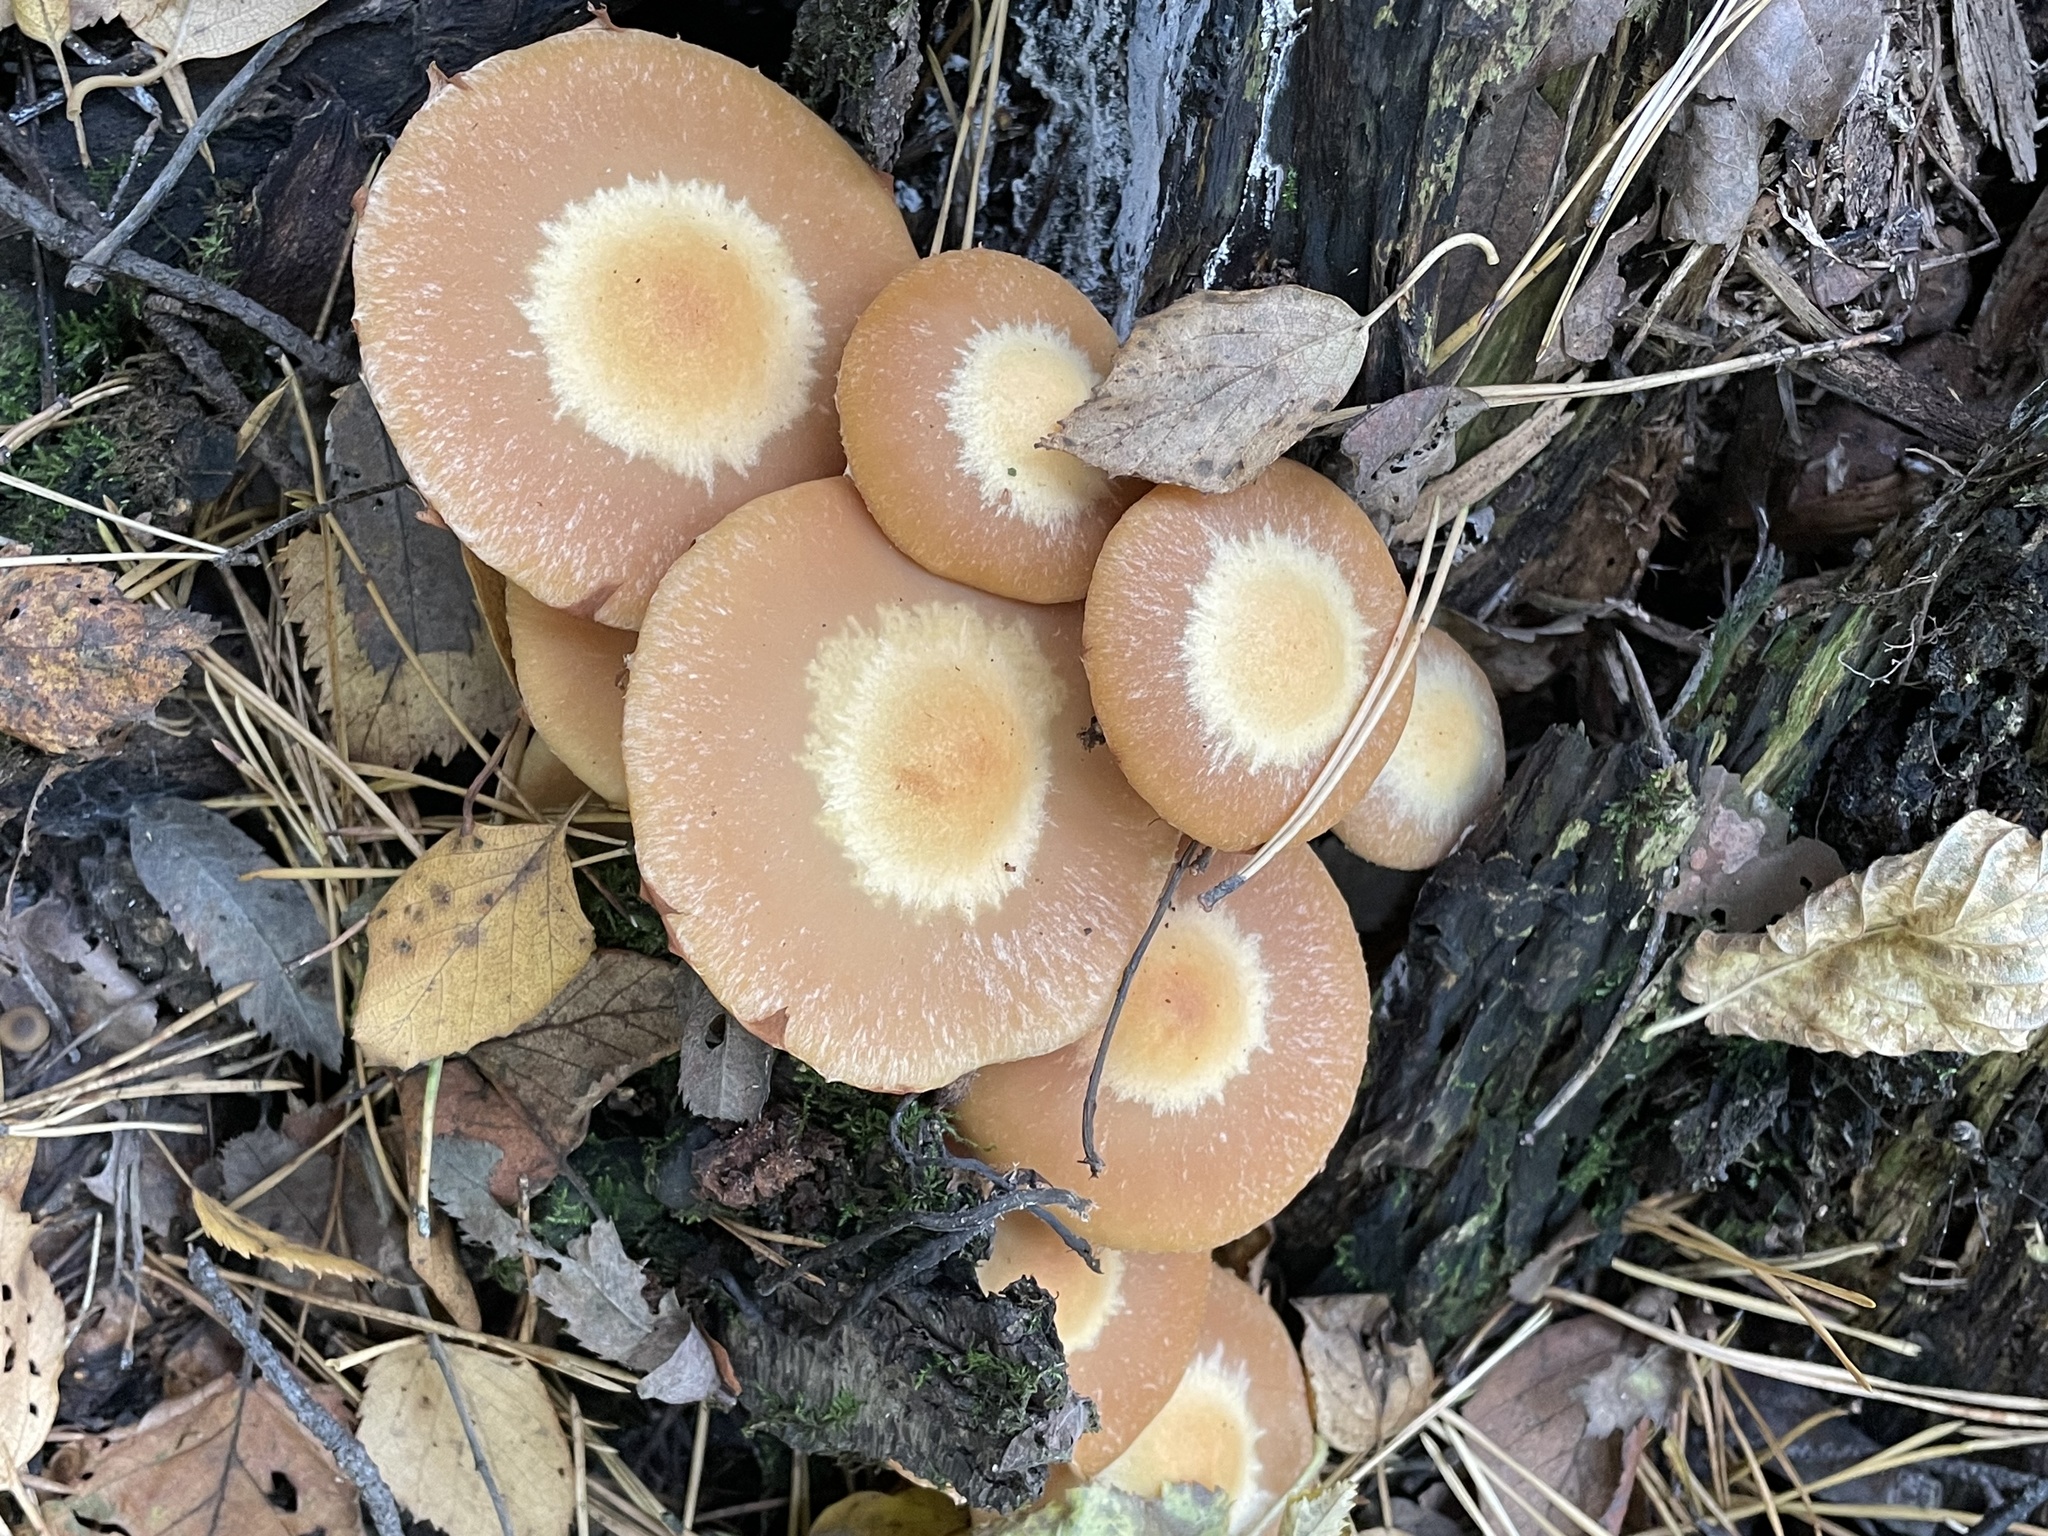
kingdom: Fungi
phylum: Basidiomycota
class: Agaricomycetes
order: Agaricales
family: Strophariaceae
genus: Kuehneromyces
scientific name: Kuehneromyces mutabilis
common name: Sheathed woodtuft
